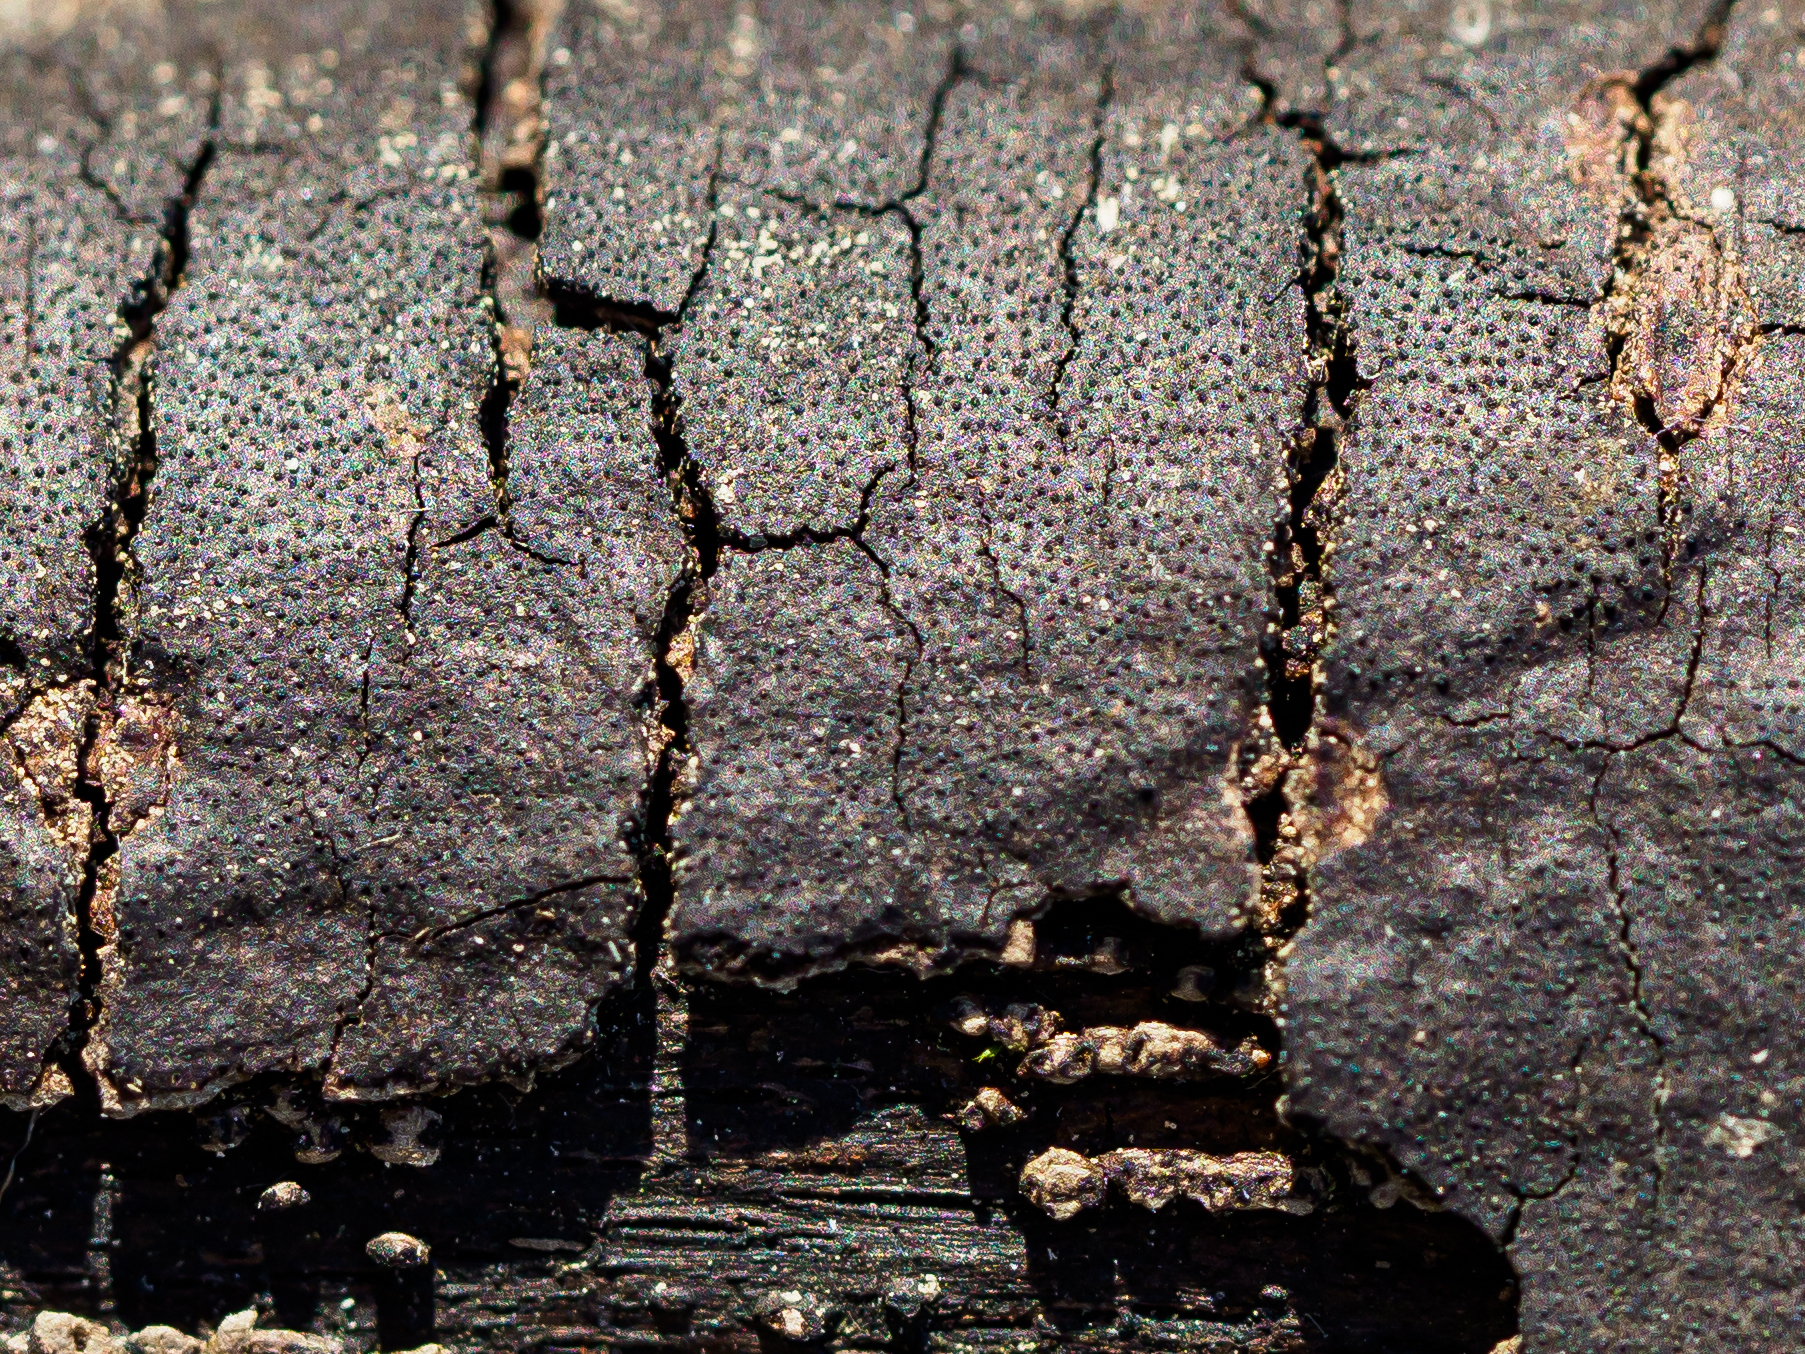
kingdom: Fungi
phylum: Ascomycota
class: Sordariomycetes
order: Xylariales
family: Diatrypaceae
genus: Diatrype
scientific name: Diatrype decorticata
